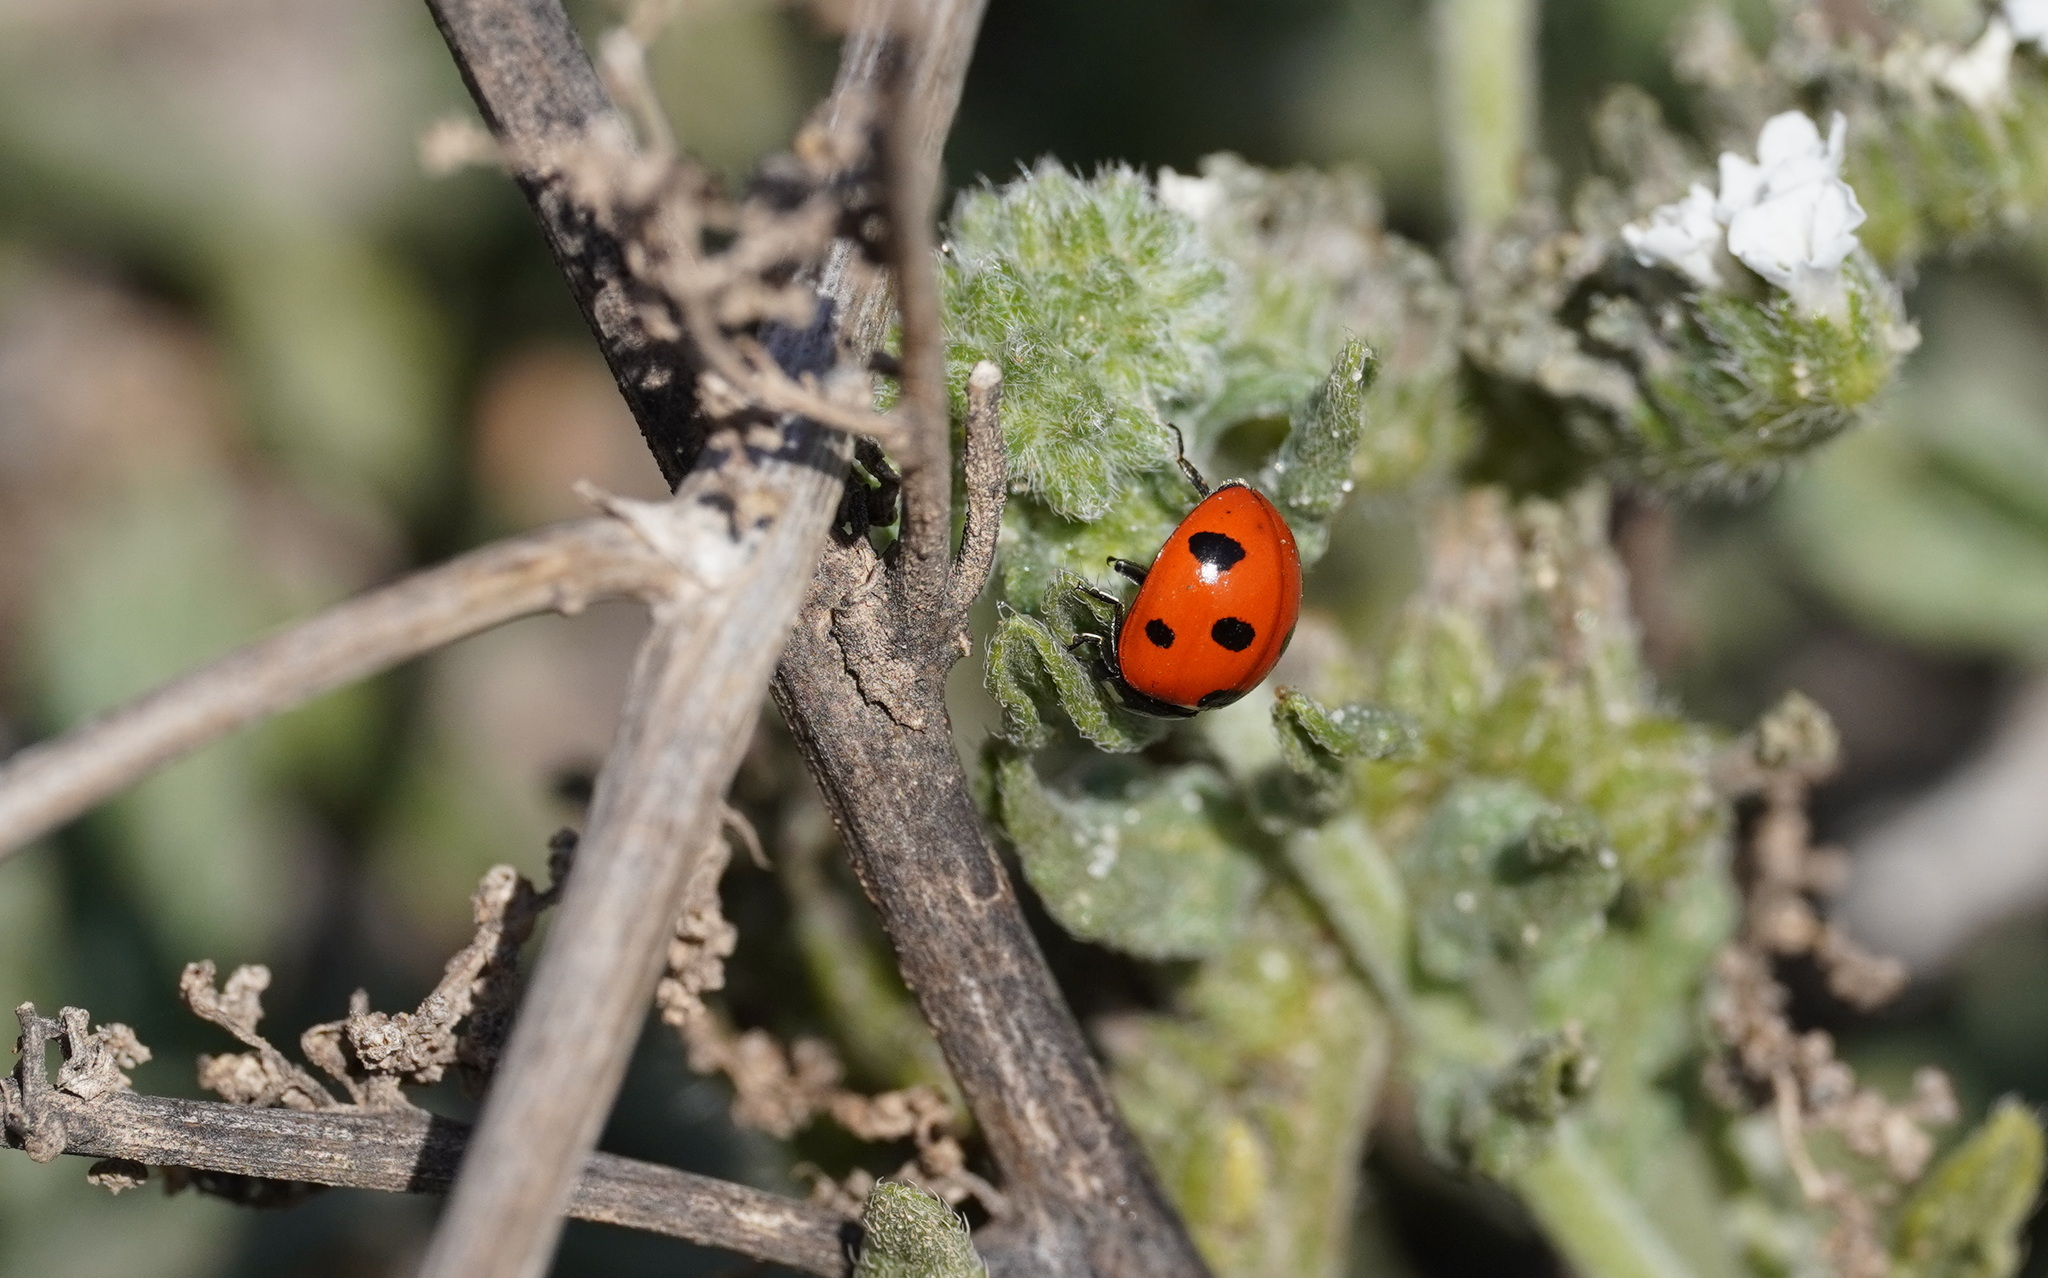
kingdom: Animalia
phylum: Arthropoda
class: Insecta
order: Coleoptera
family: Coccinellidae
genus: Coccinella
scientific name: Coccinella algerica
